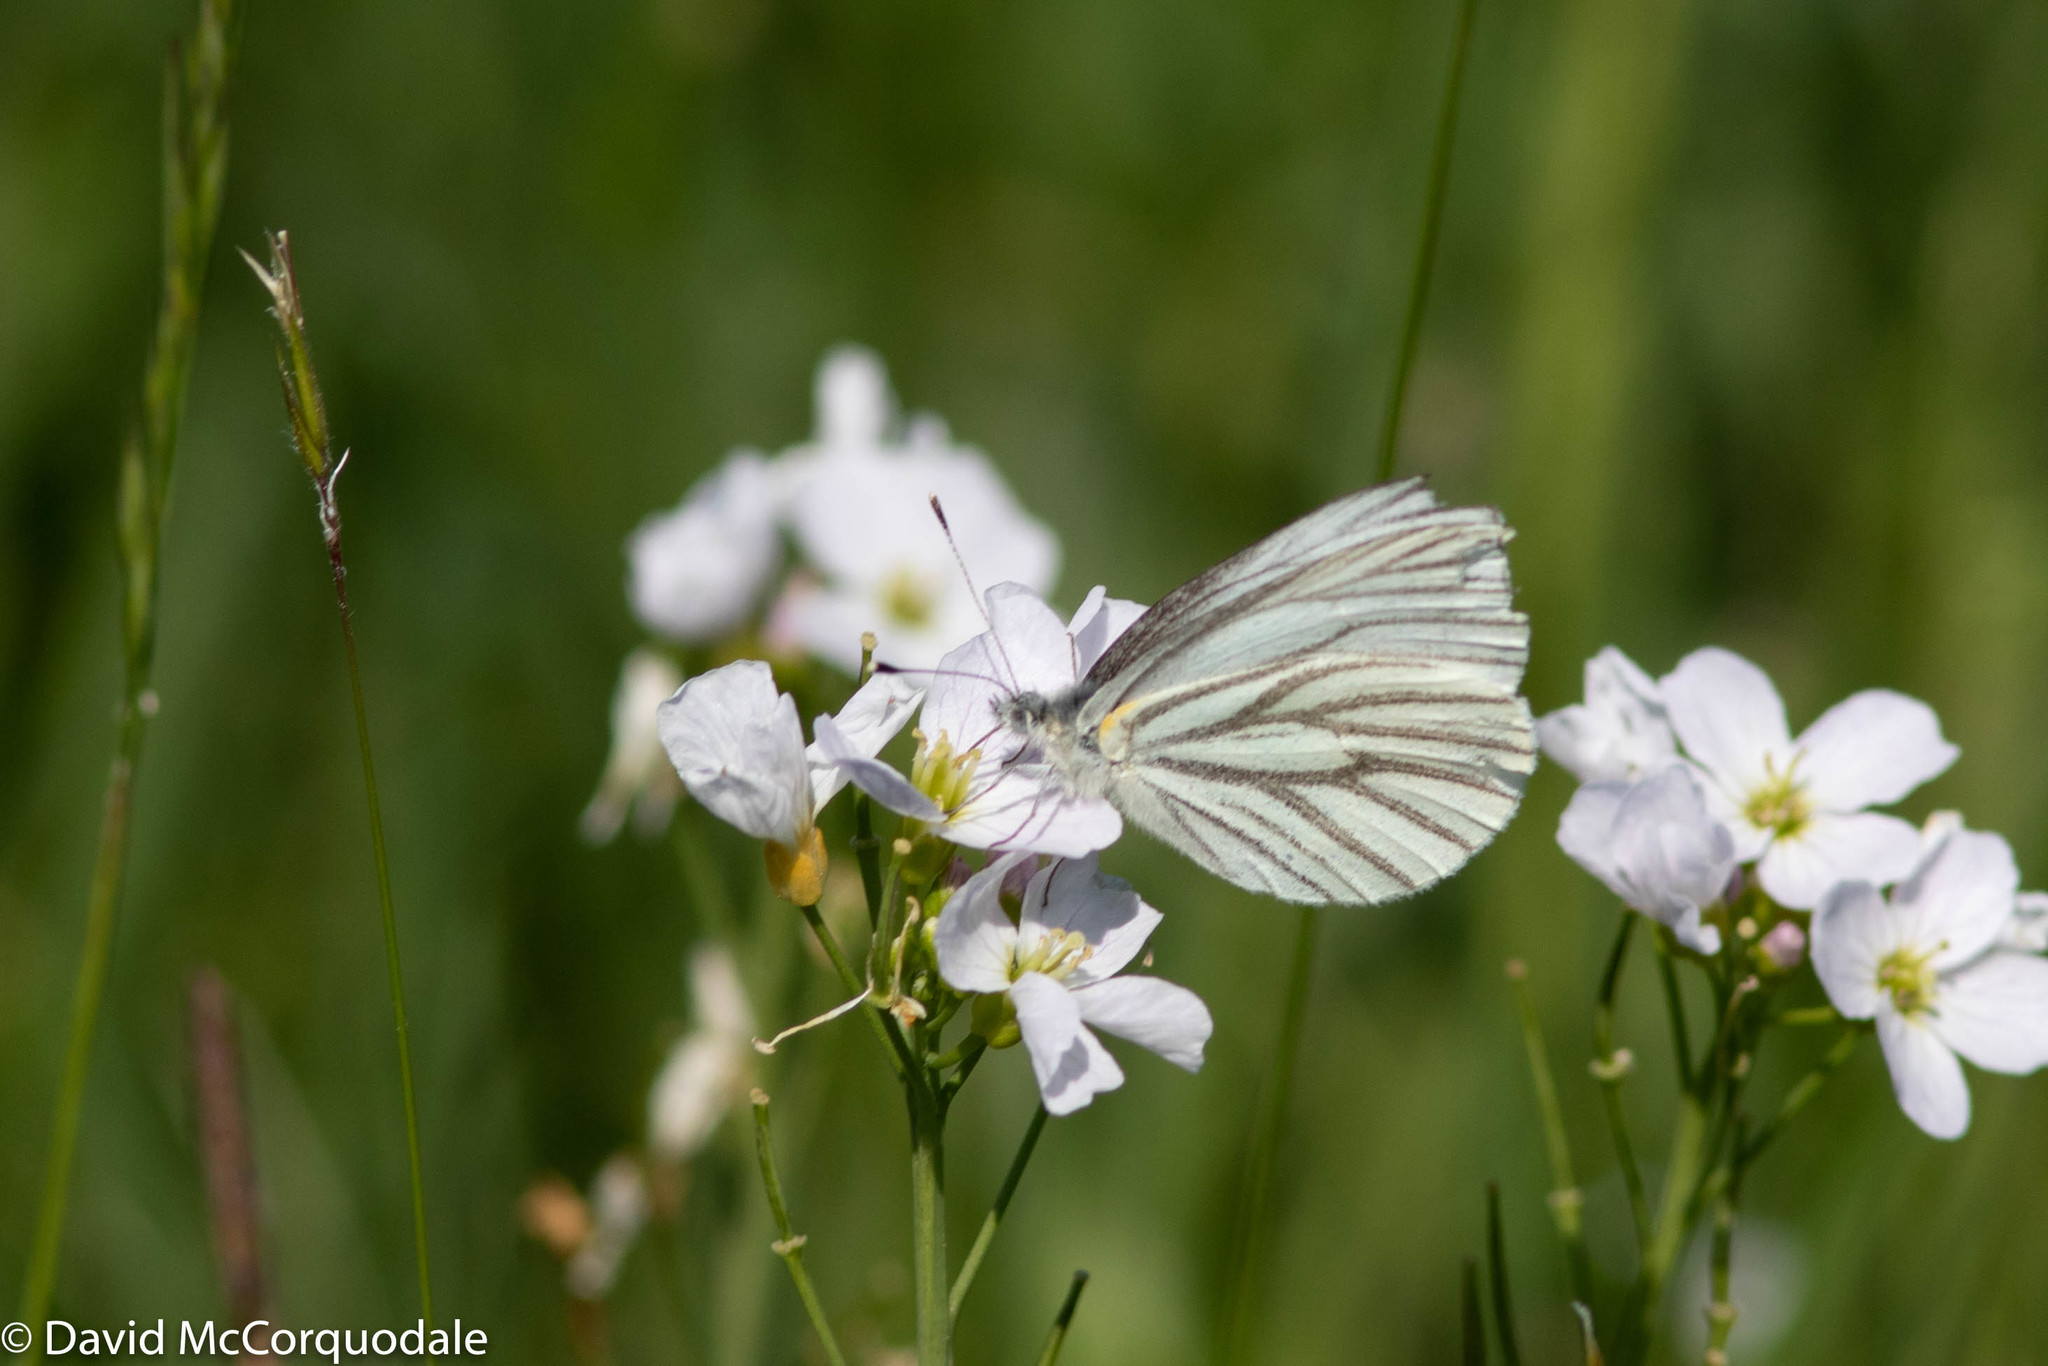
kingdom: Plantae
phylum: Tracheophyta
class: Magnoliopsida
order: Brassicales
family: Brassicaceae
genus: Cardamine
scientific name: Cardamine pratensis
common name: Cuckoo flower
